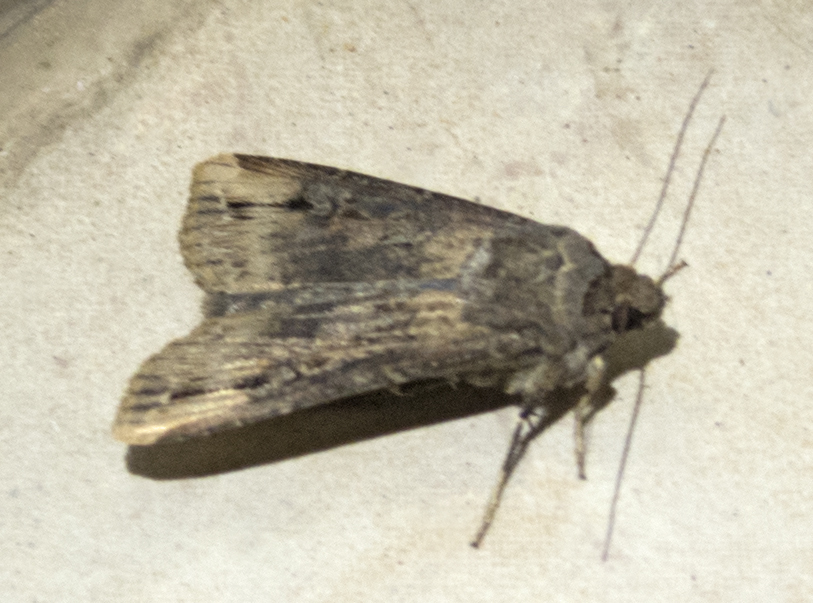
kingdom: Animalia
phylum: Arthropoda
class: Insecta
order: Lepidoptera
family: Noctuidae
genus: Agrotis
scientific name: Agrotis ipsilon
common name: Dark sword-grass
